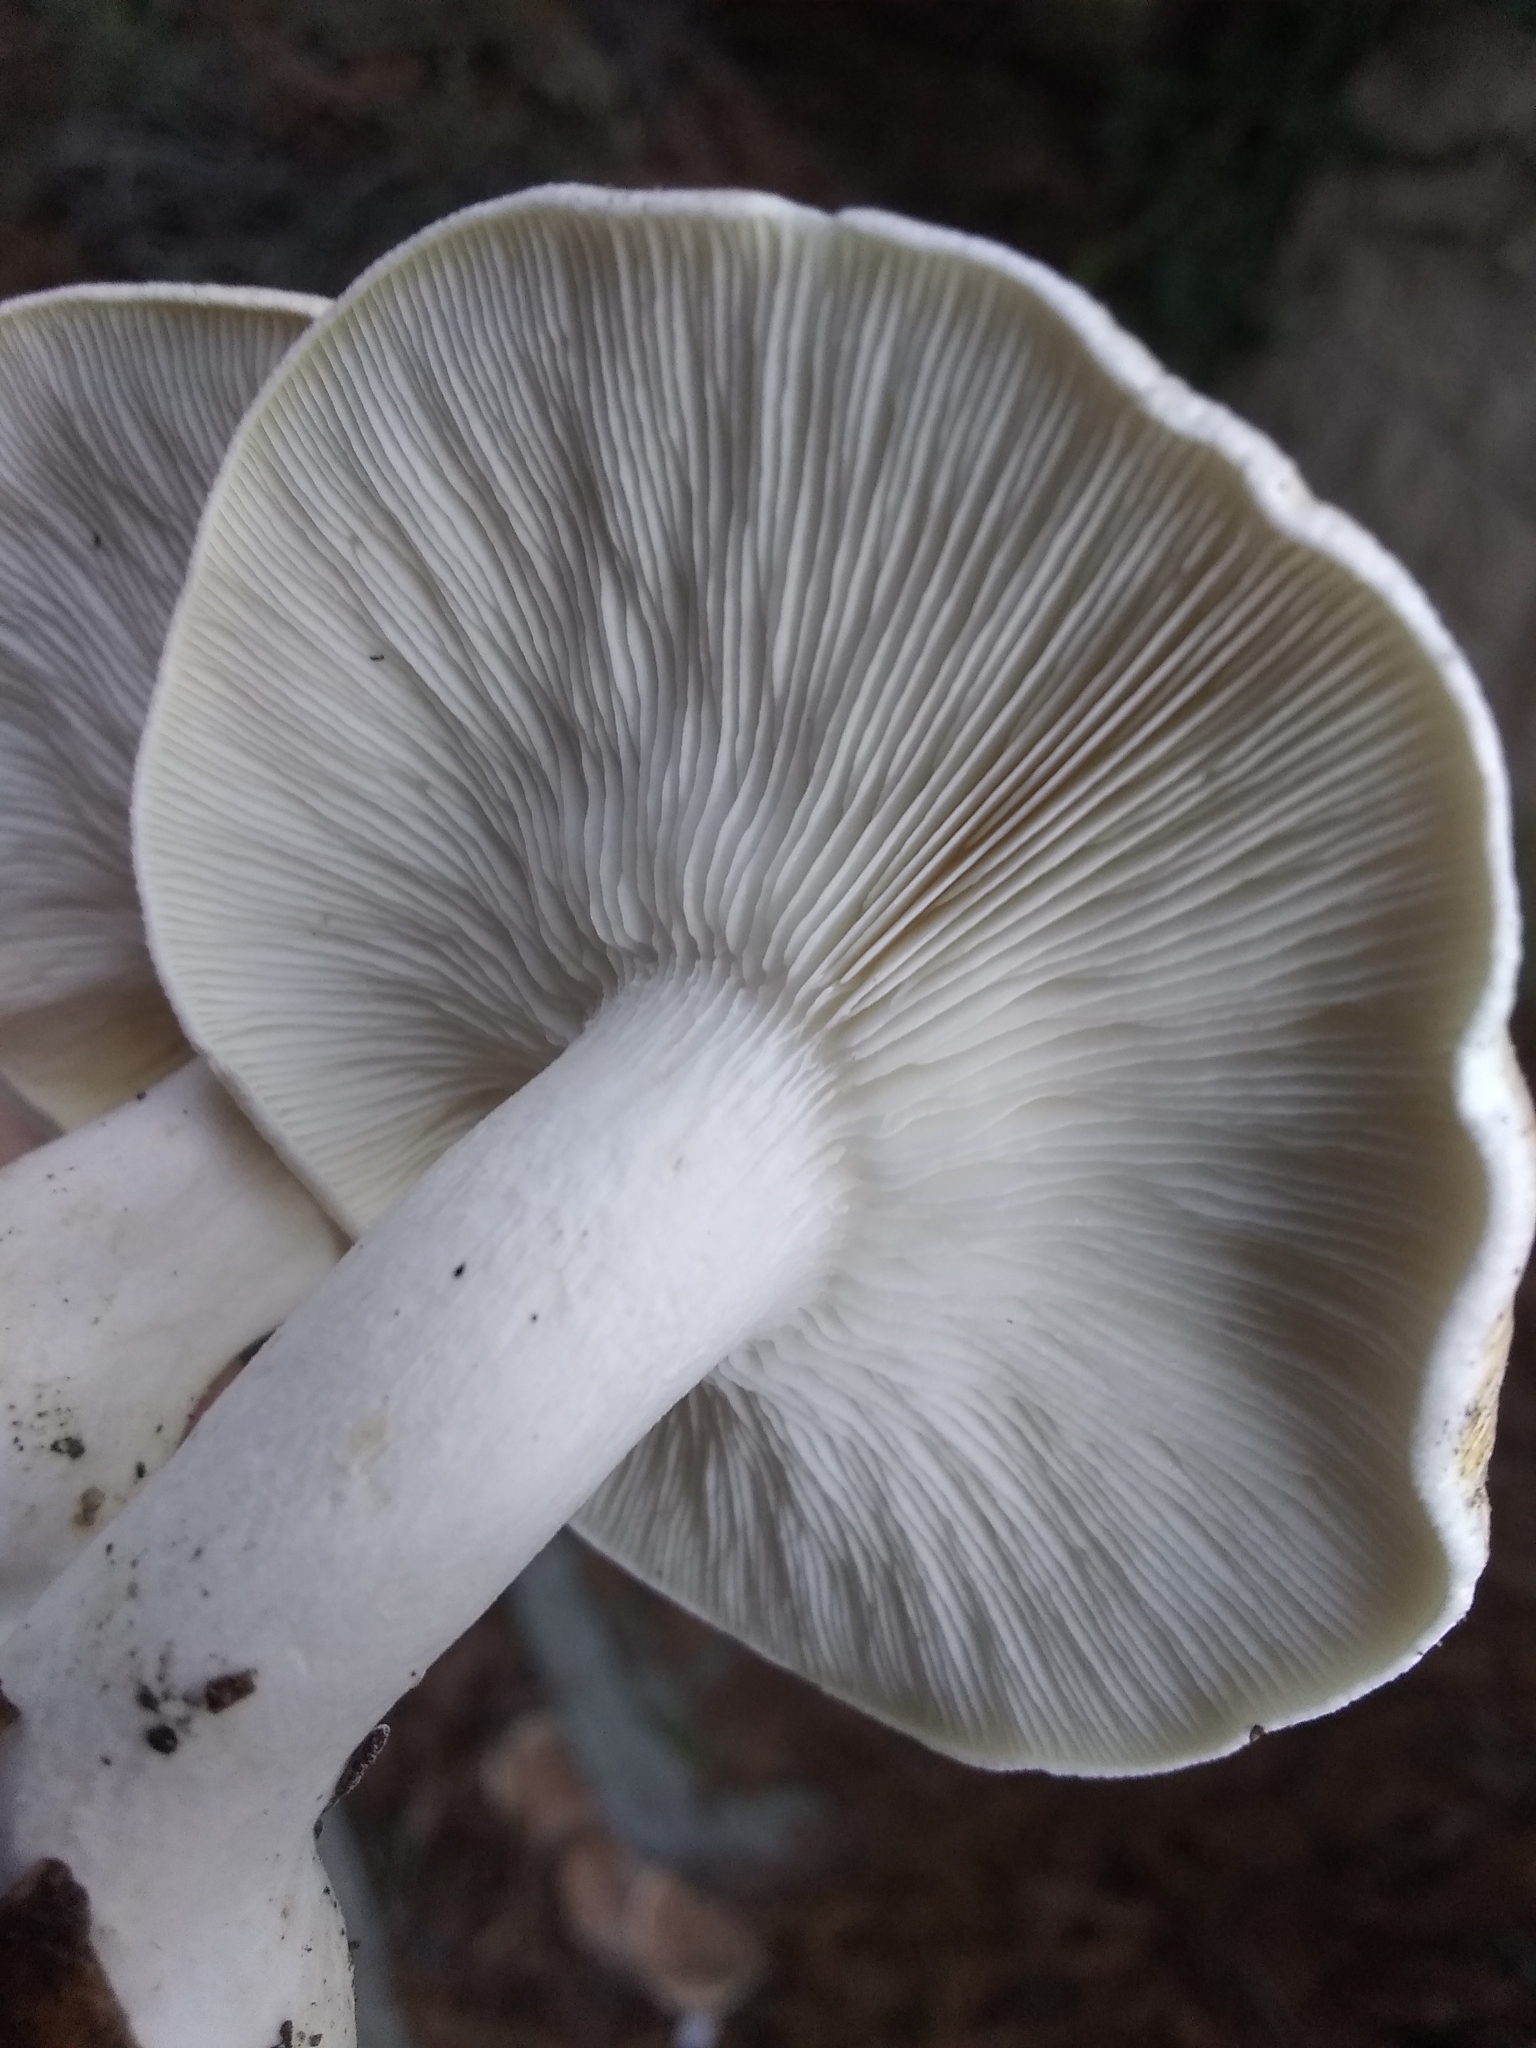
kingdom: Fungi
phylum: Basidiomycota
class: Agaricomycetes
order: Agaricales
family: Tricholomataceae
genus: Leucopaxillus
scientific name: Leucopaxillus gentianeus
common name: Bitter funnel
